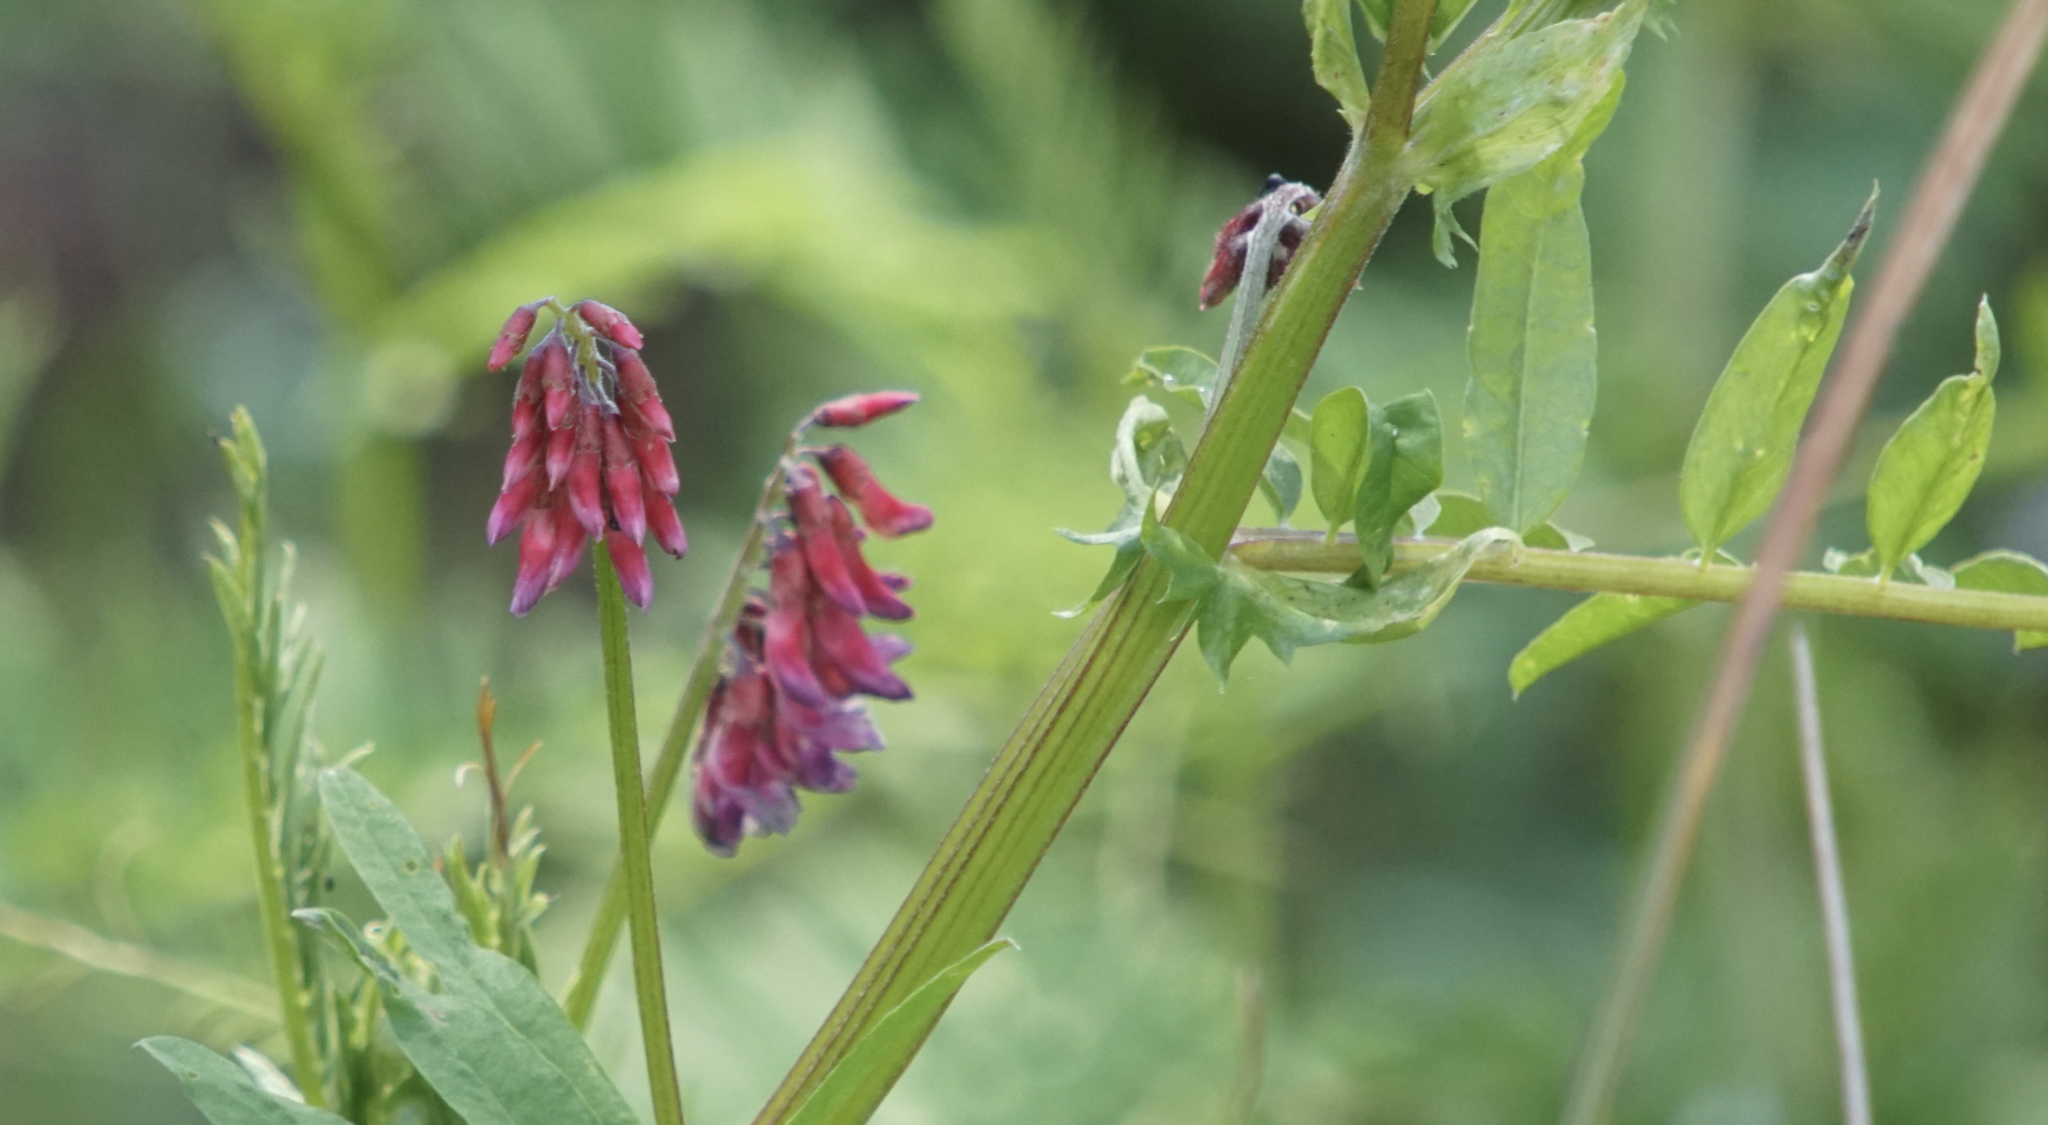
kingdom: Plantae
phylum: Tracheophyta
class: Magnoliopsida
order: Fabales
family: Fabaceae
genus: Vicia
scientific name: Vicia
